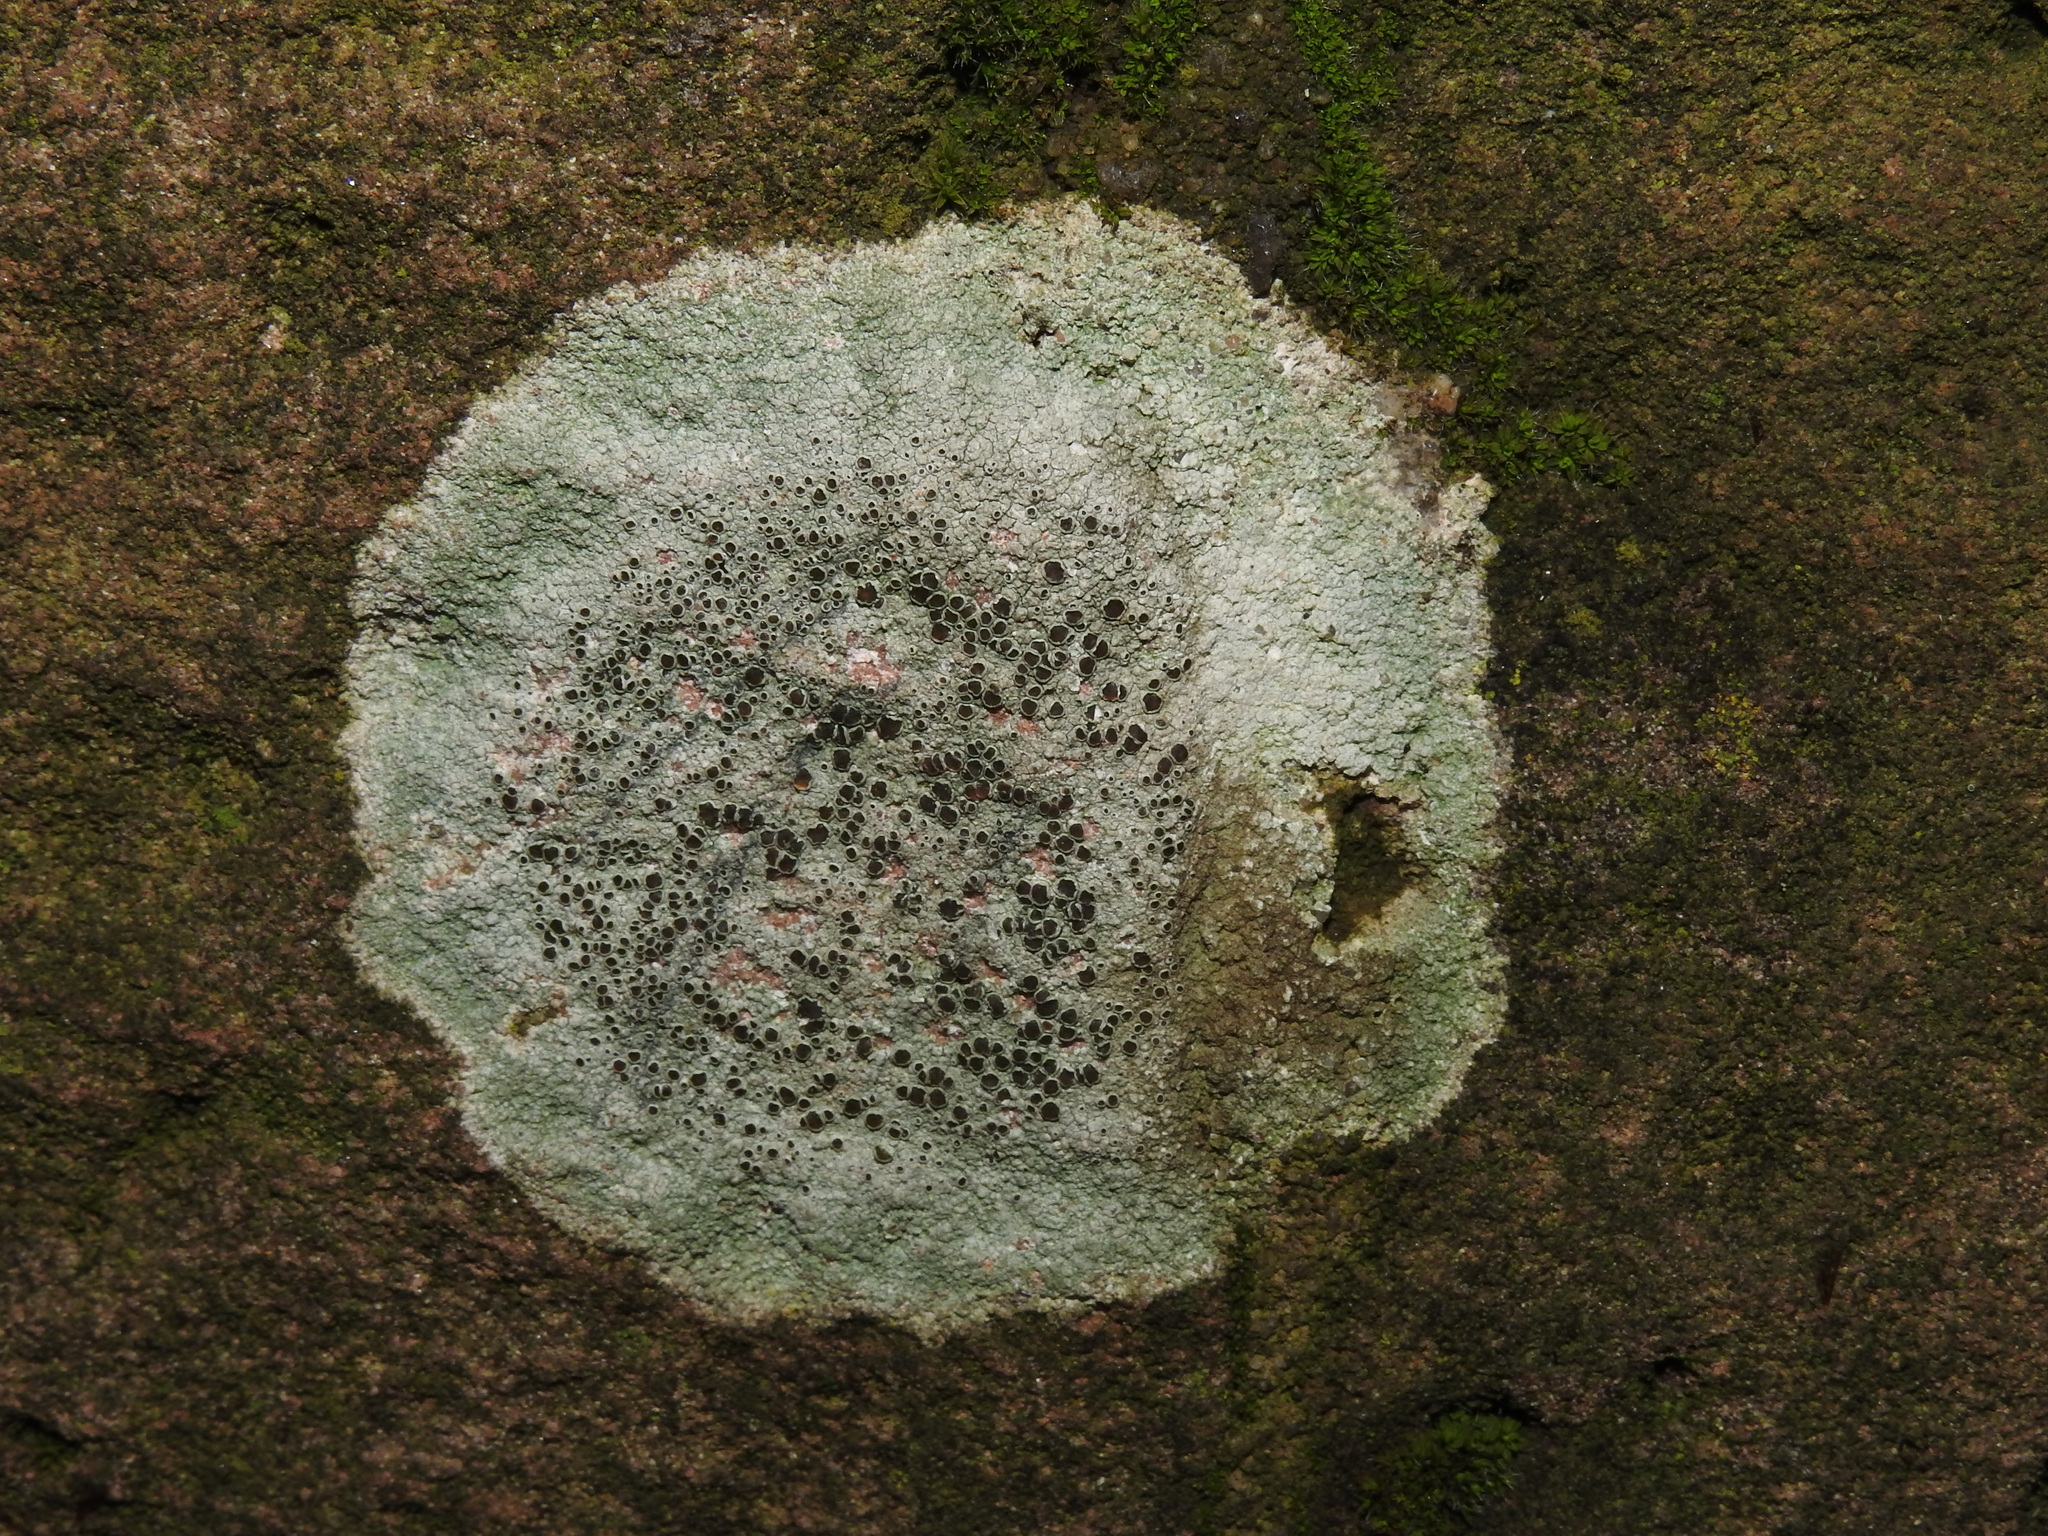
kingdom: Fungi
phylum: Ascomycota
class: Lecanoromycetes
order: Lecanorales
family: Lecanoraceae
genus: Lecanora
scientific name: Lecanora campestris
